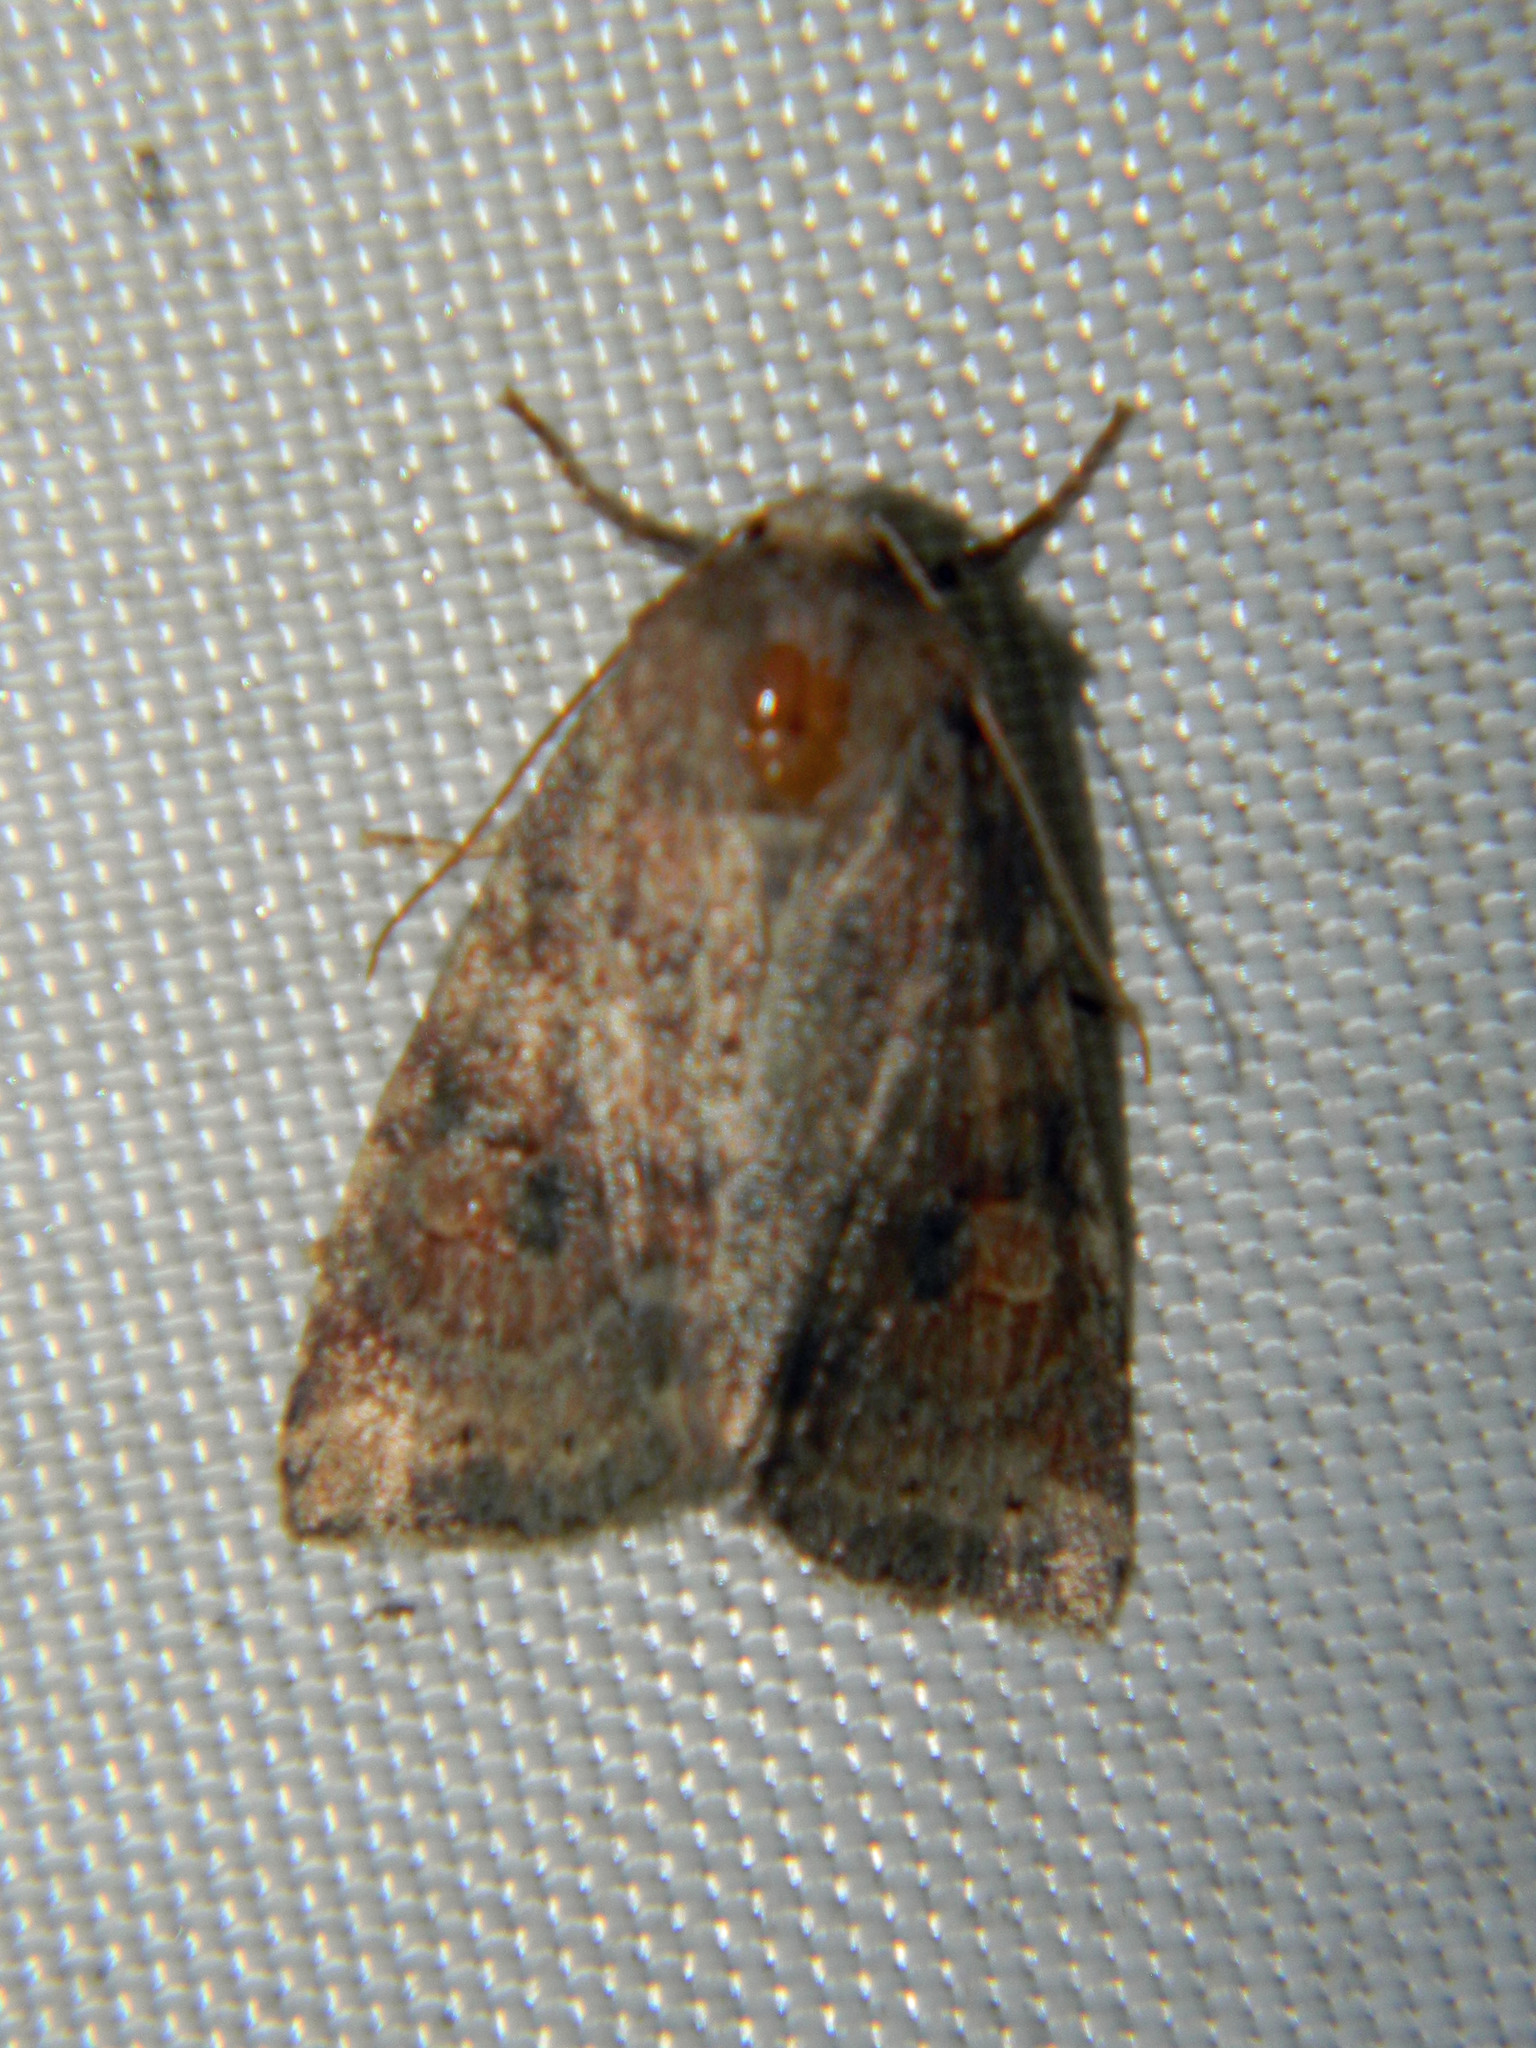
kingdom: Animalia
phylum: Arthropoda
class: Insecta
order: Lepidoptera
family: Noctuidae
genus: Anathix
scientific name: Anathix puta
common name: Puta sallow
